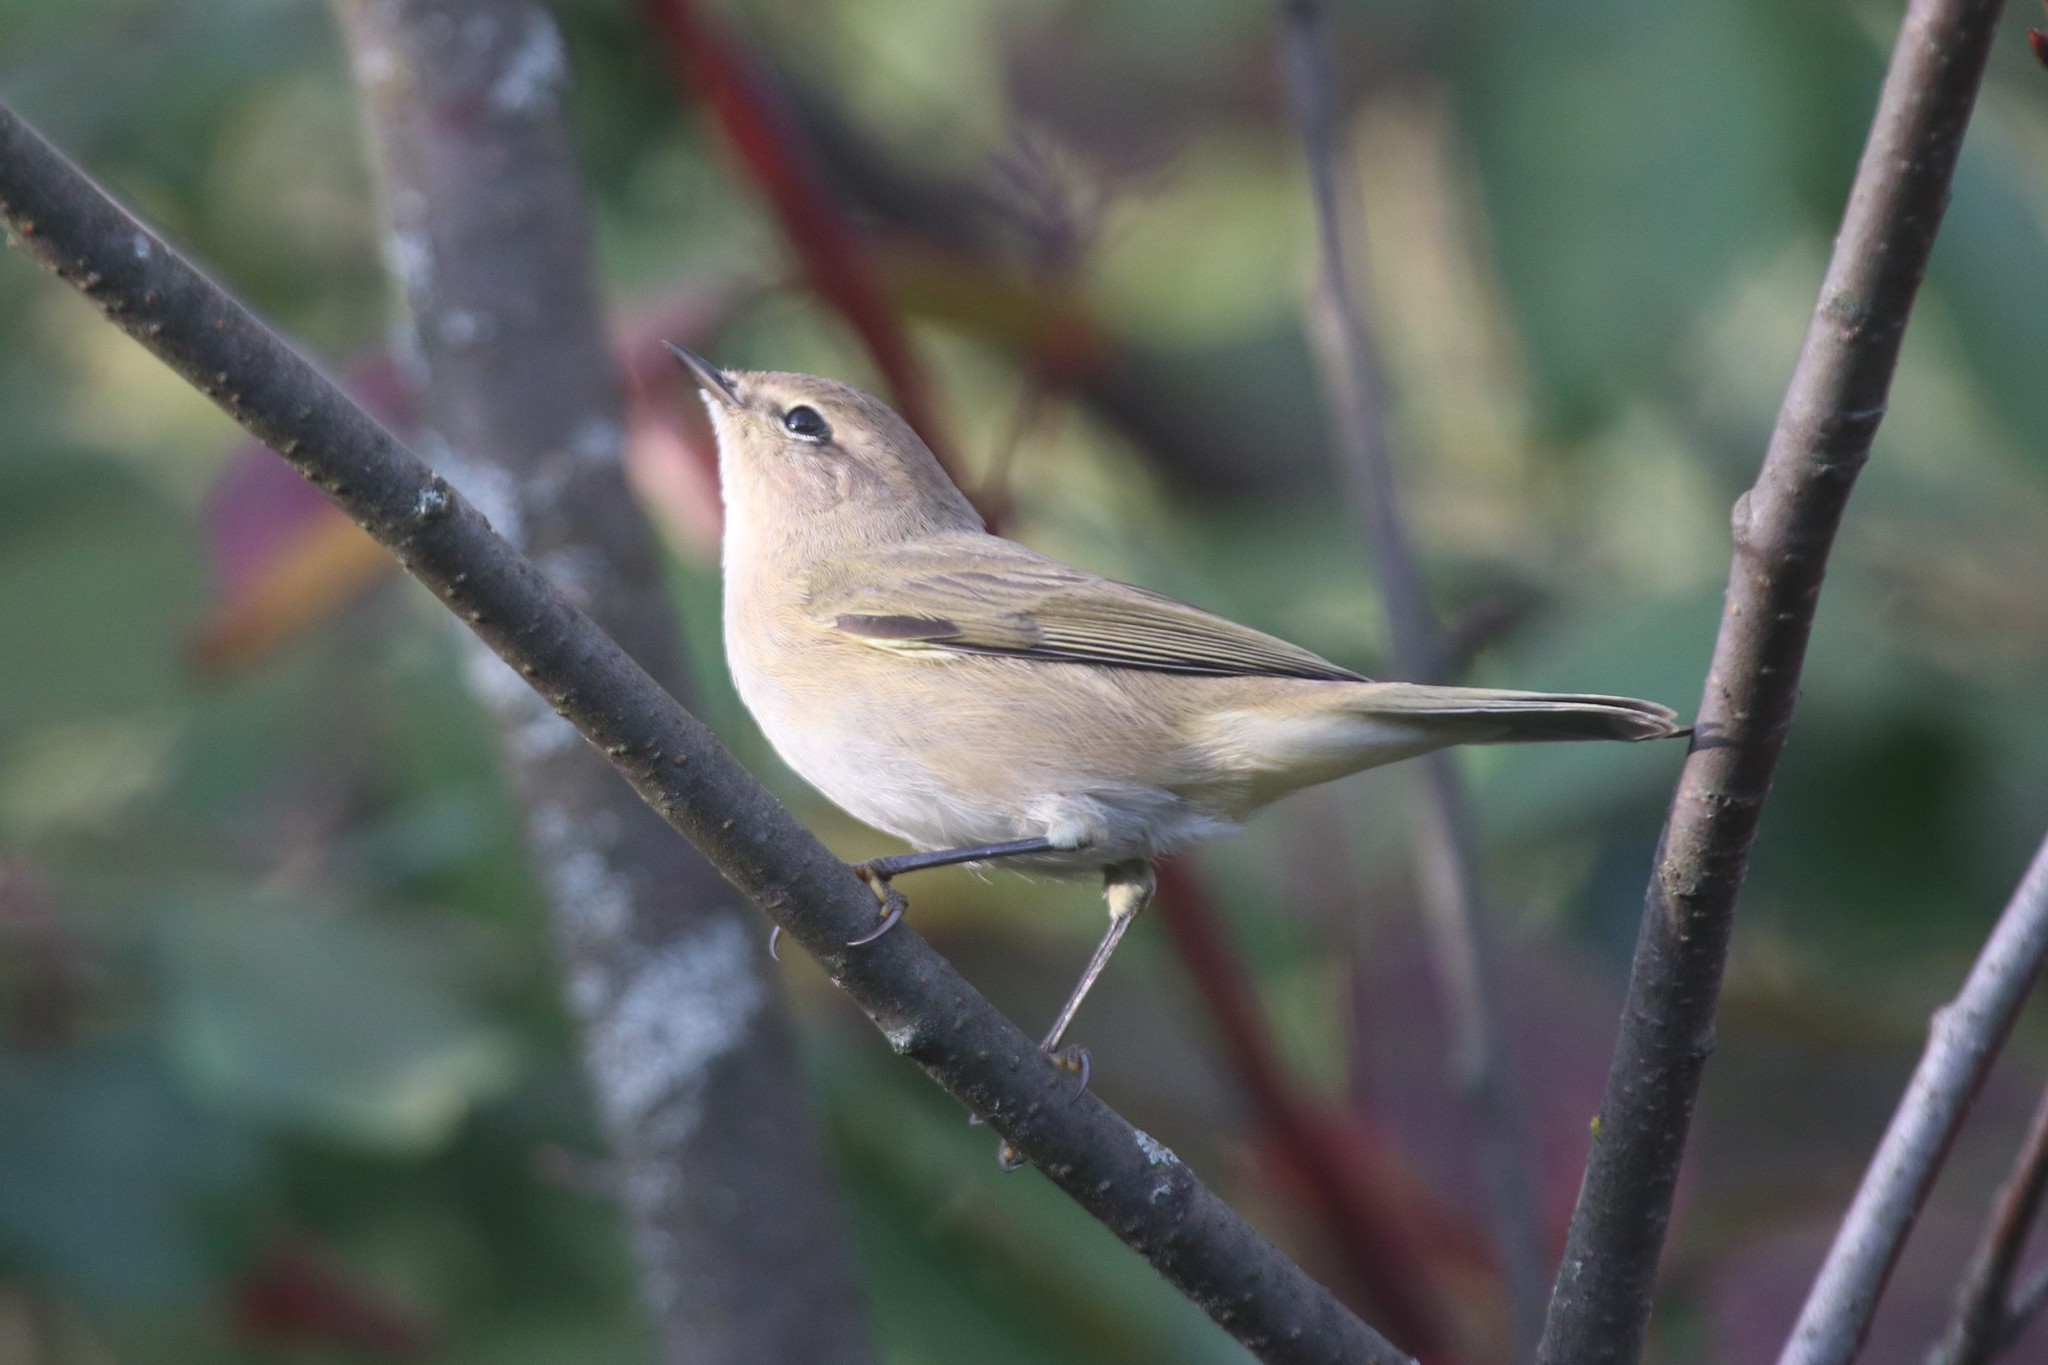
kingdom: Animalia
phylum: Chordata
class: Aves
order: Passeriformes
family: Phylloscopidae
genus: Phylloscopus
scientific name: Phylloscopus collybita
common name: Common chiffchaff
